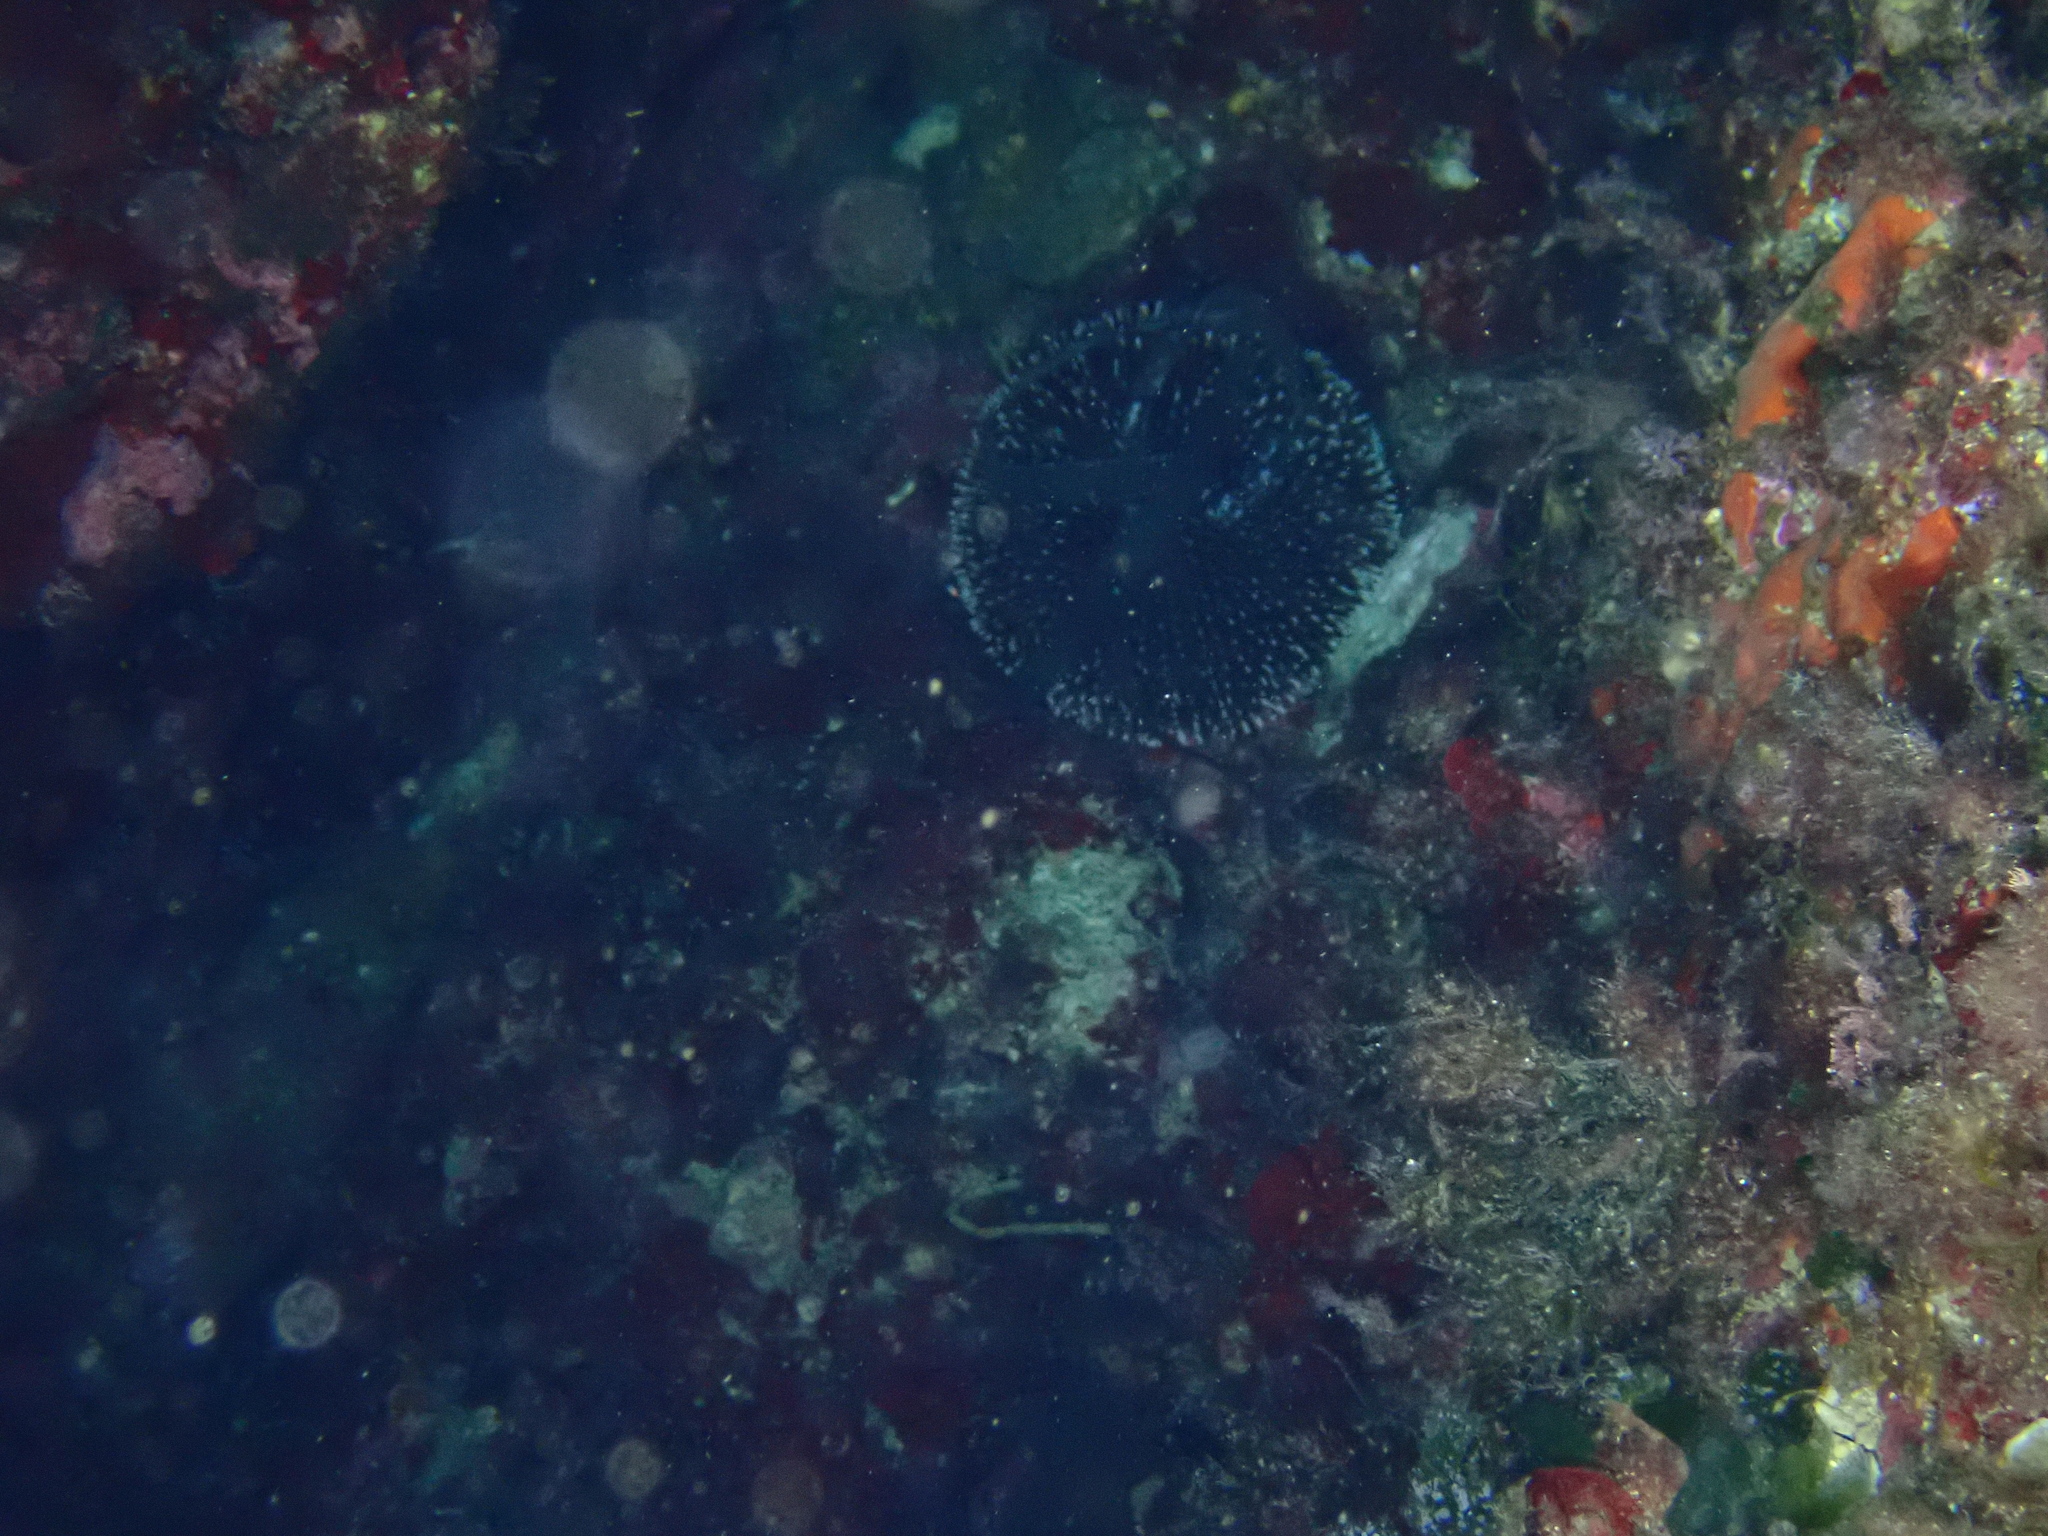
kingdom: Animalia
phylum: Echinodermata
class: Echinoidea
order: Camarodonta
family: Toxopneustidae
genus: Sphaerechinus
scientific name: Sphaerechinus granularis
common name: Violet sea urchin
